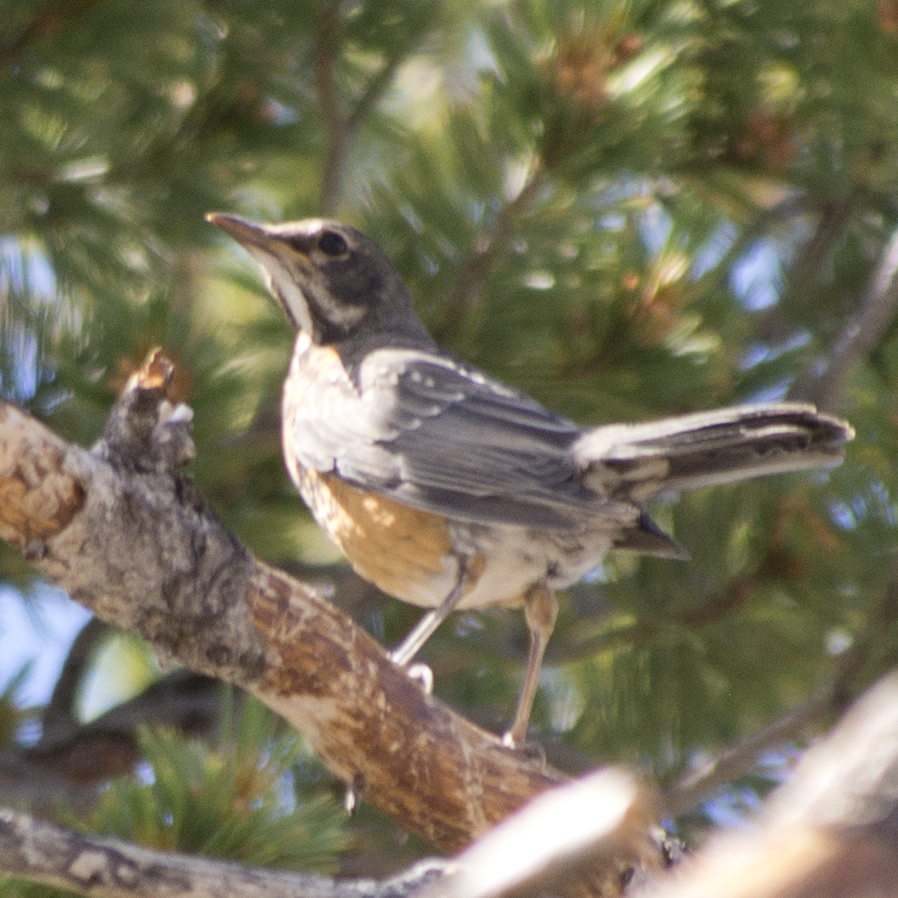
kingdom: Animalia
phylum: Chordata
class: Aves
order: Passeriformes
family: Turdidae
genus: Turdus
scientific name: Turdus migratorius
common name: American robin
